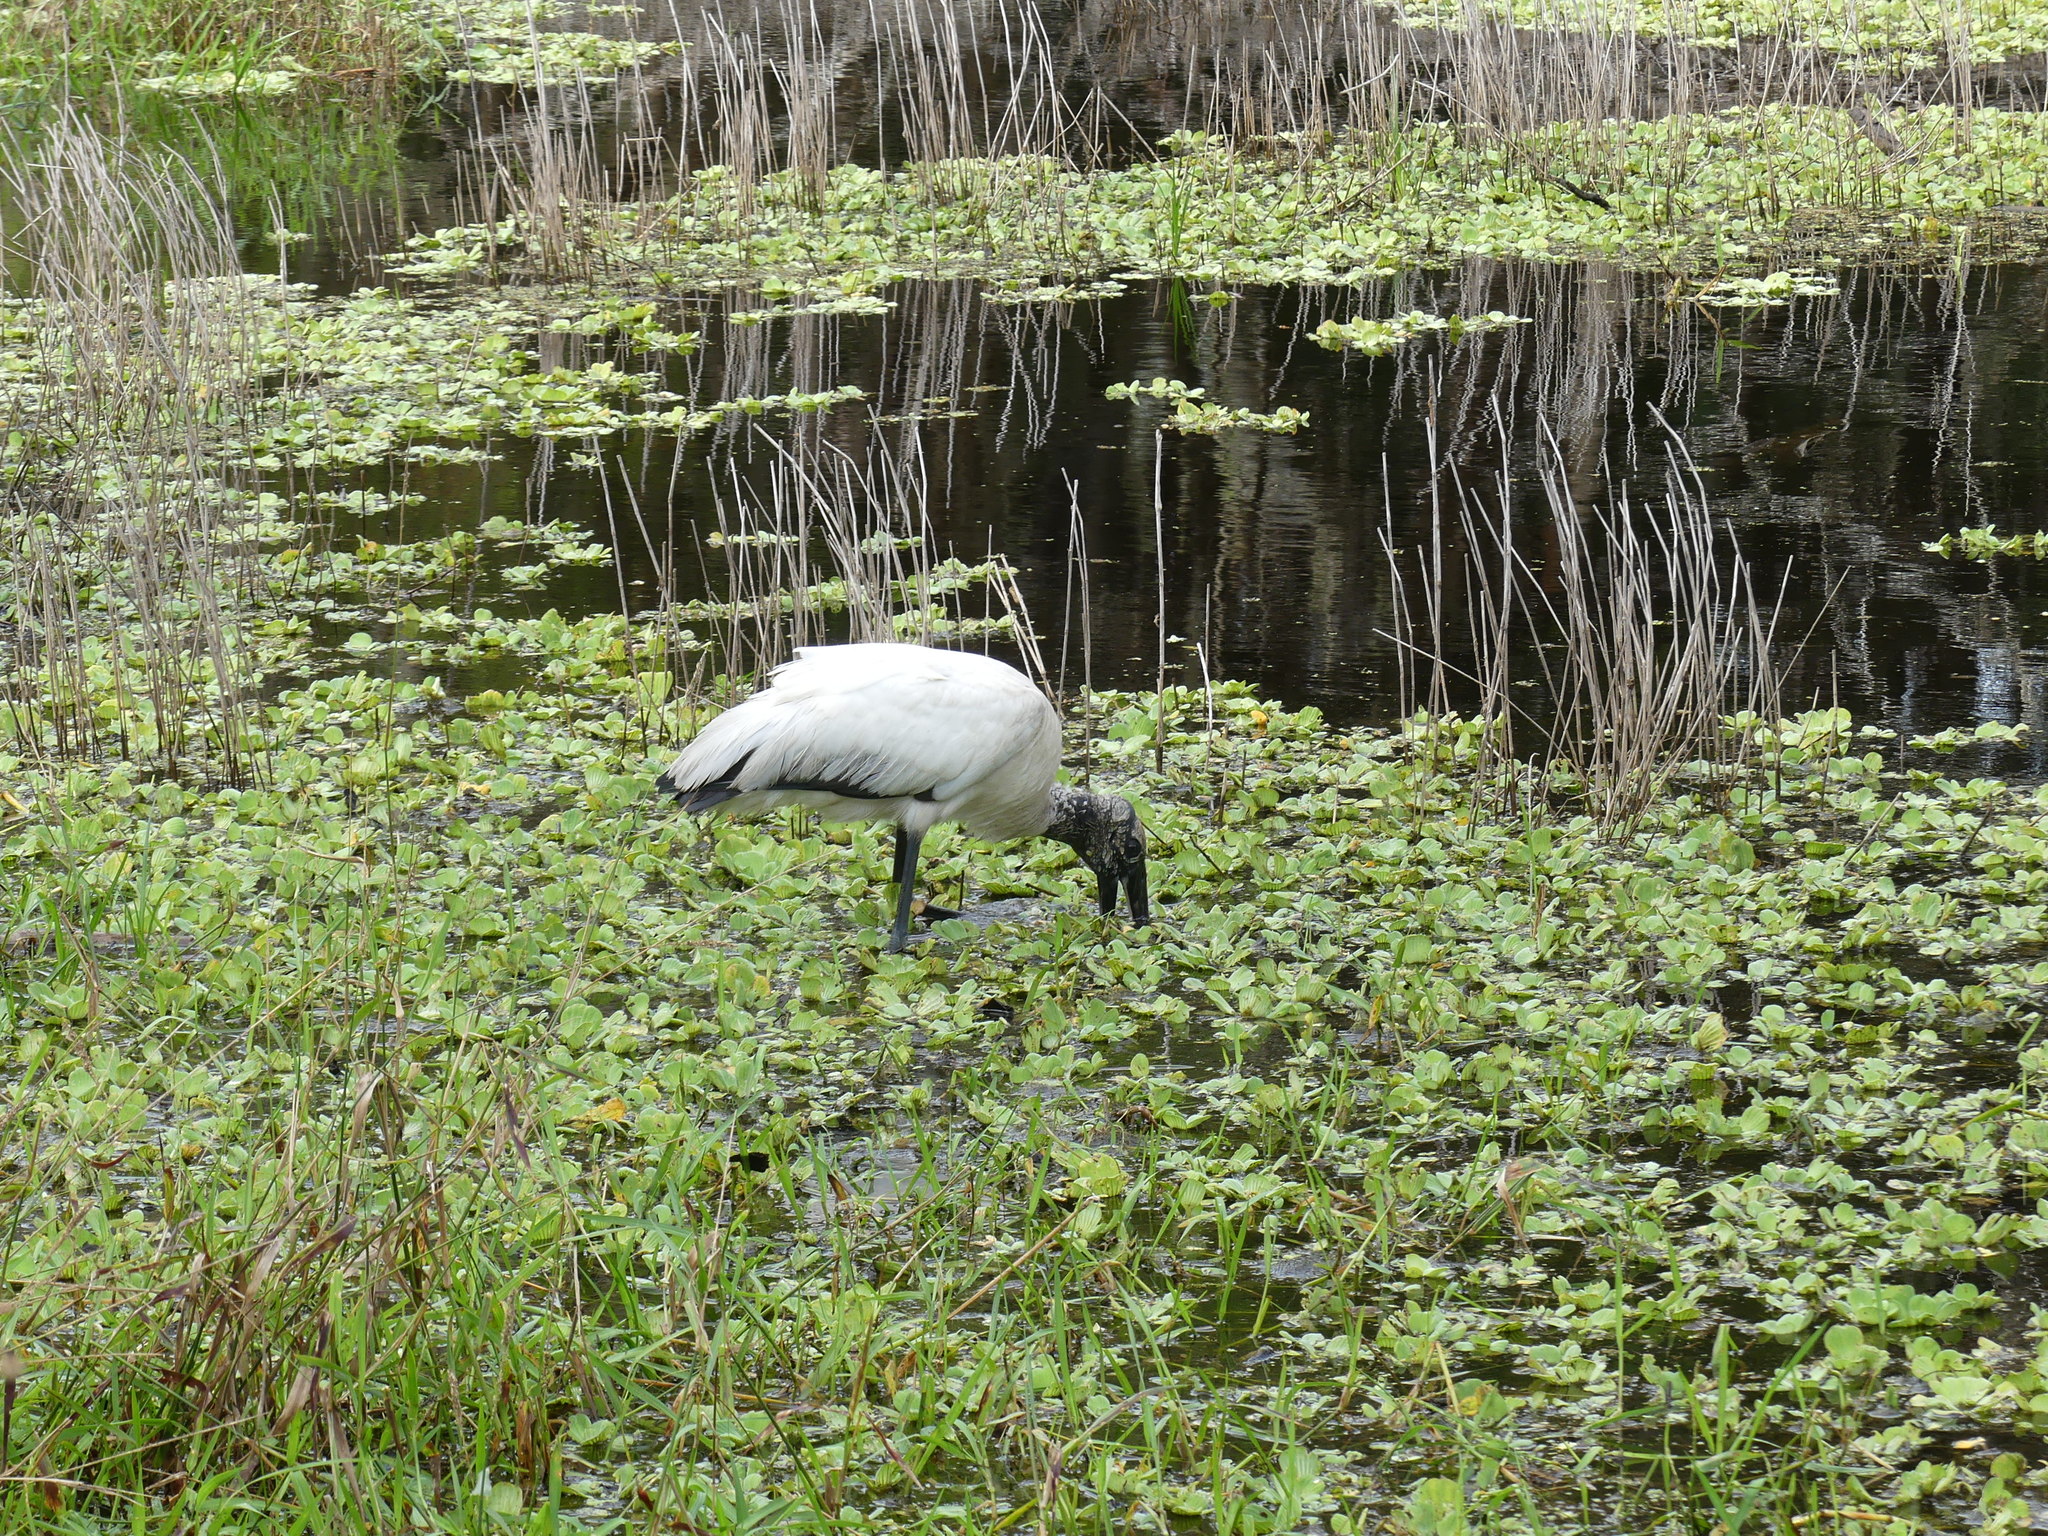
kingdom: Animalia
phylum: Chordata
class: Aves
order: Ciconiiformes
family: Ciconiidae
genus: Mycteria
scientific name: Mycteria americana
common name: Wood stork
